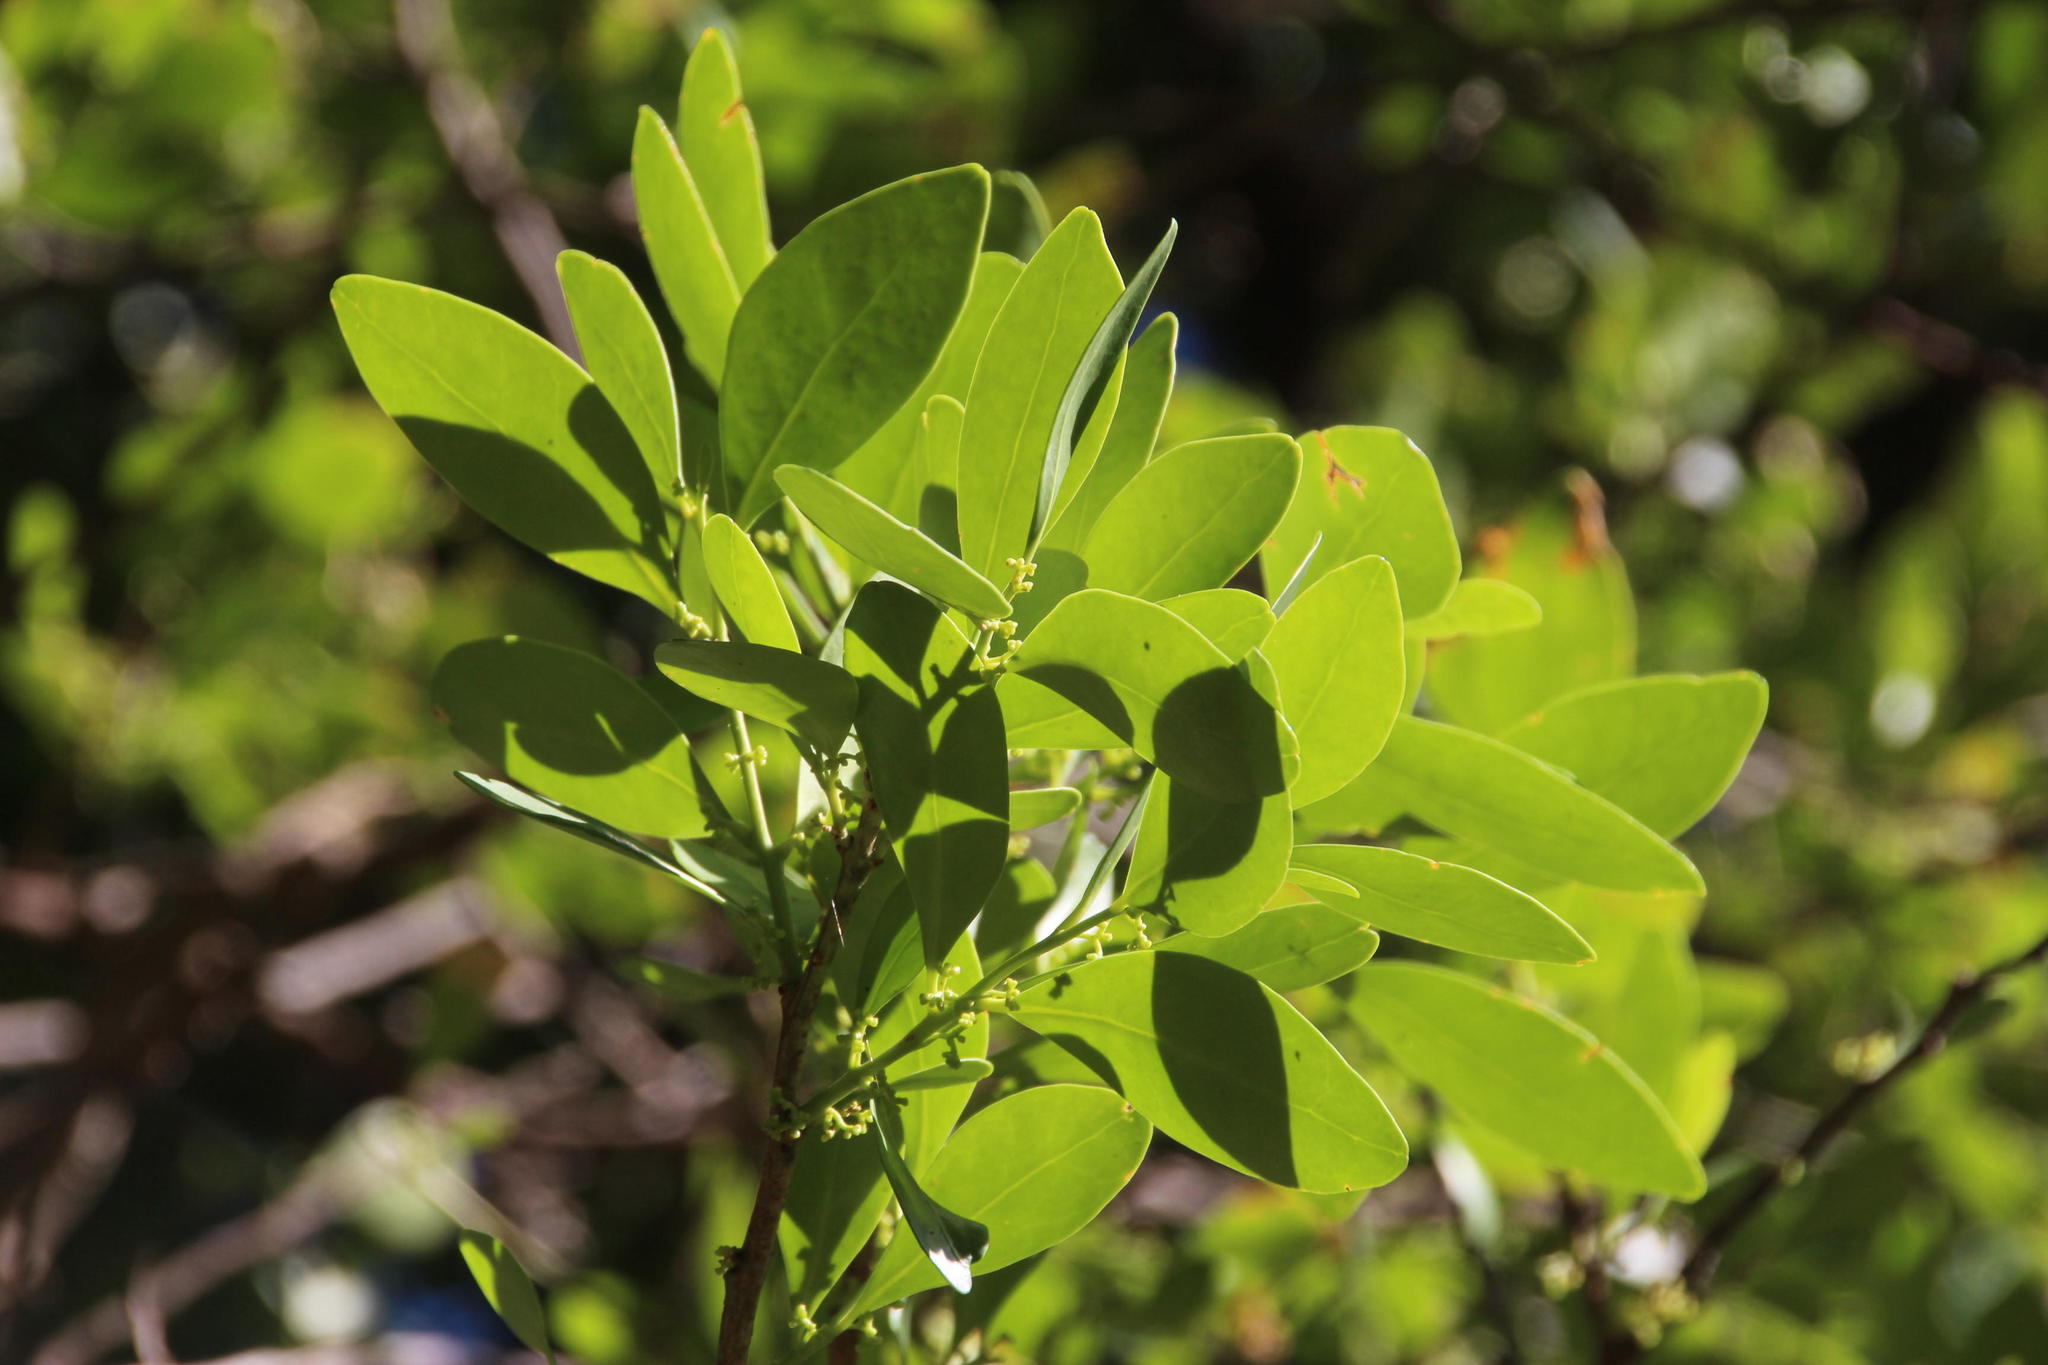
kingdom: Plantae
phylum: Tracheophyta
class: Magnoliopsida
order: Celastrales
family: Celastraceae
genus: Pterocelastrus
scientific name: Pterocelastrus tricuspidatus
